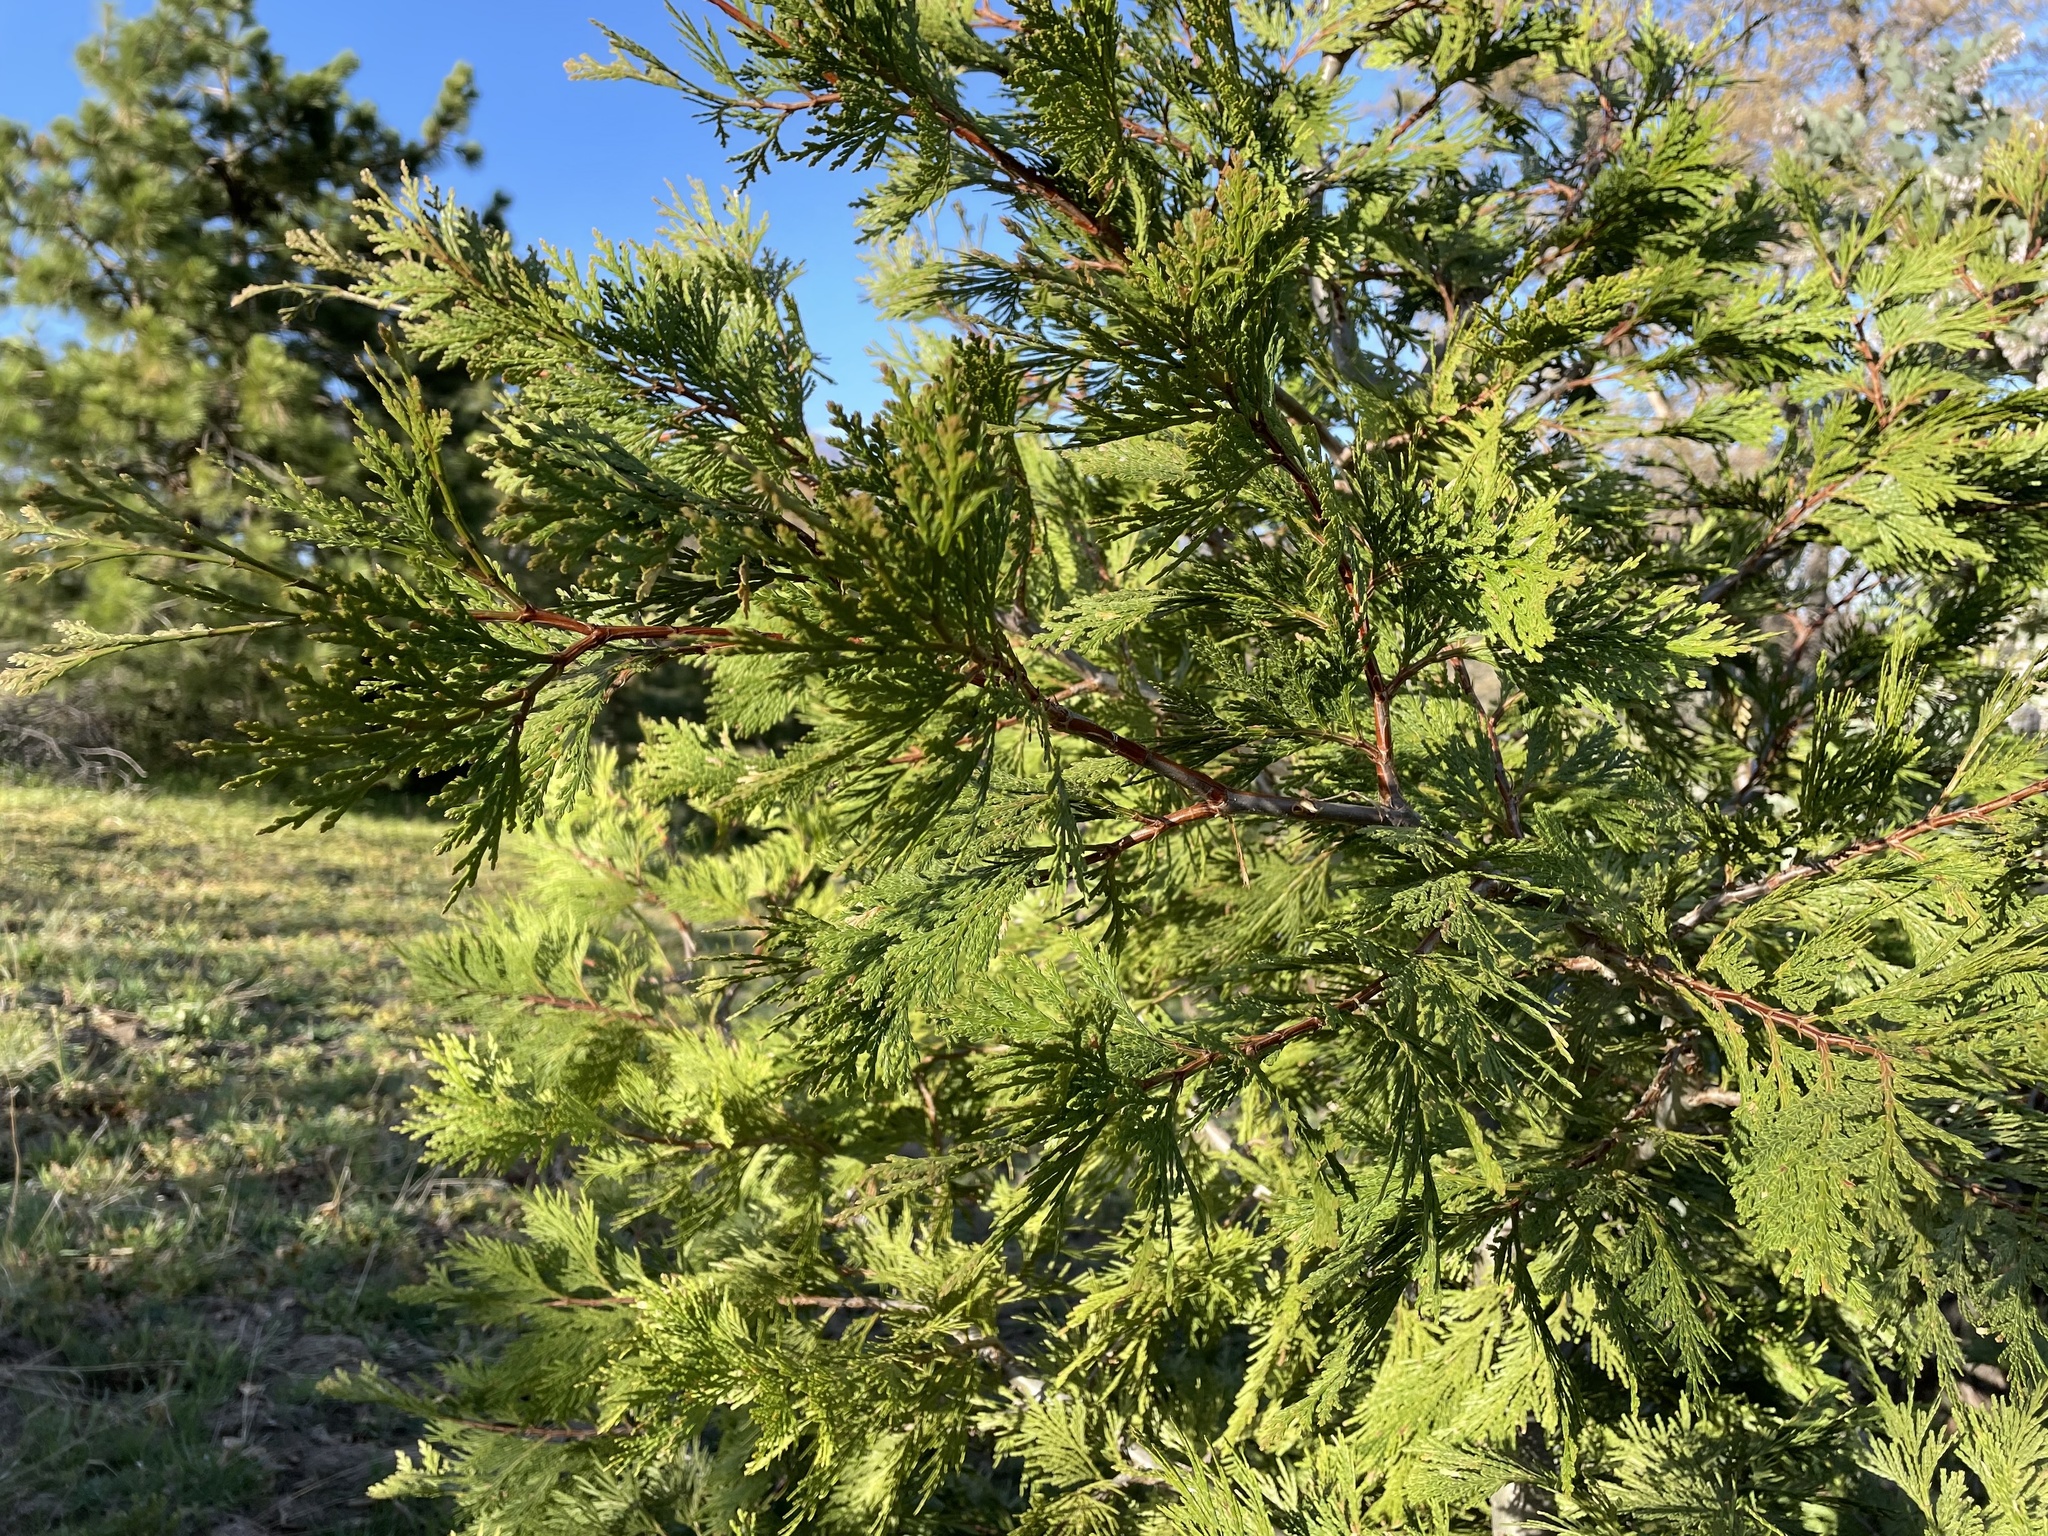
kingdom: Plantae
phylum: Tracheophyta
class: Pinopsida
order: Pinales
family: Cupressaceae
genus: Calocedrus
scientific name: Calocedrus decurrens
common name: Californian incense-cedar
